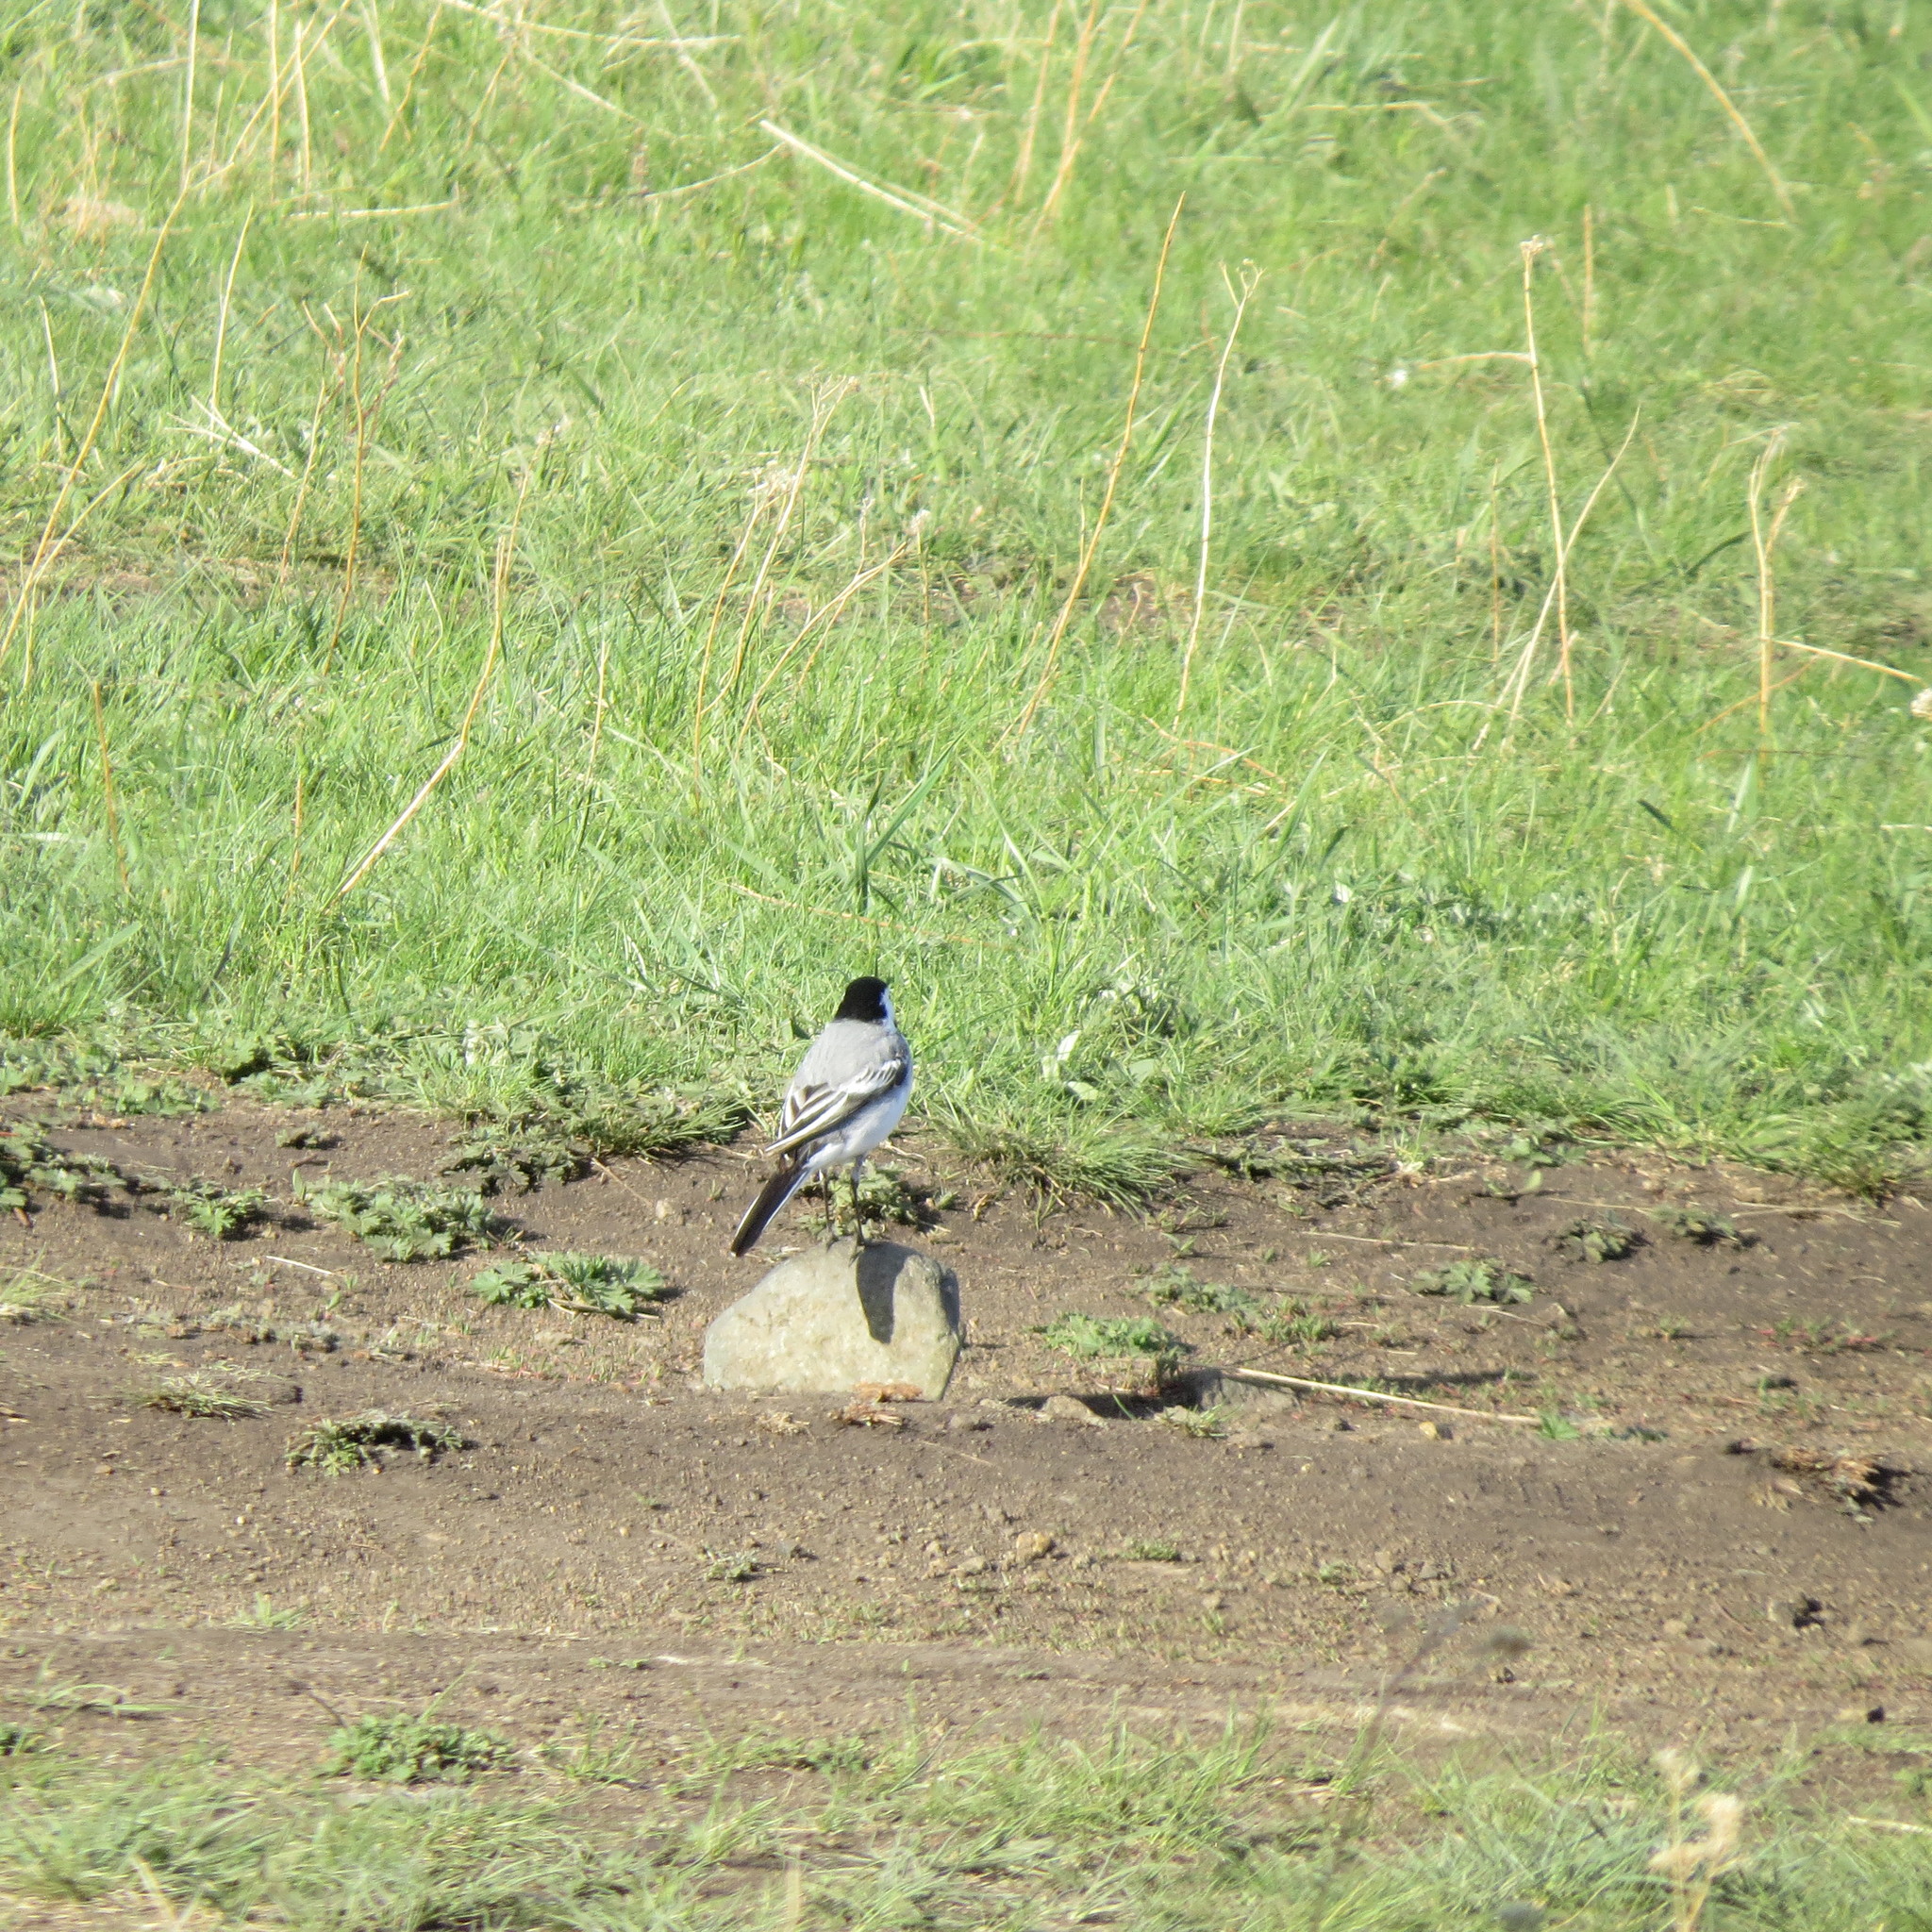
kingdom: Animalia
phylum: Chordata
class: Aves
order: Passeriformes
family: Motacillidae
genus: Motacilla
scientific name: Motacilla alba
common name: White wagtail
